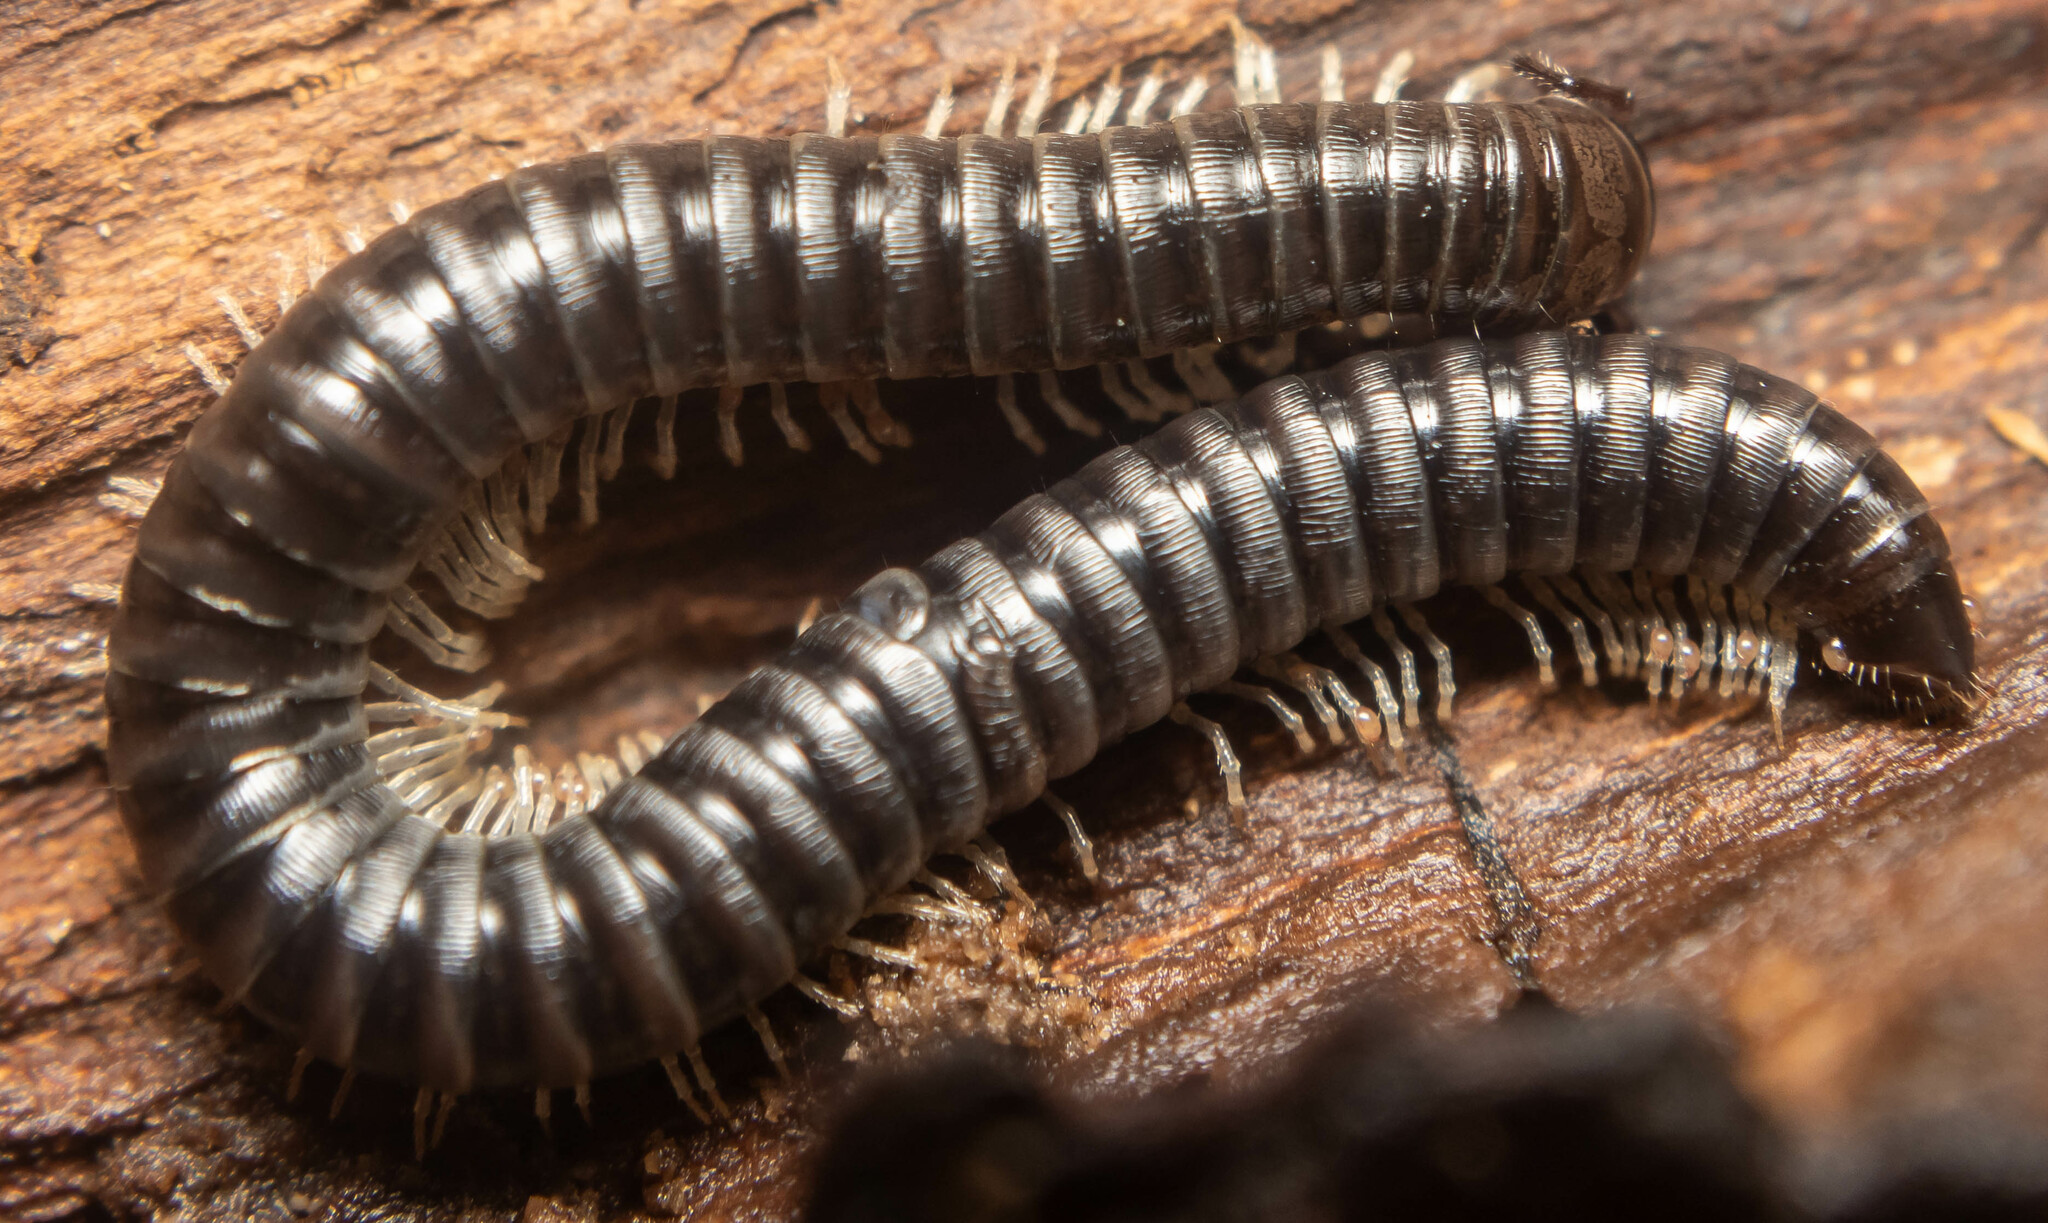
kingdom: Animalia
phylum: Arthropoda
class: Diplopoda
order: Julida
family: Julidae
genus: Tachypodoiulus
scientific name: Tachypodoiulus niger
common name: White-legged snake millipede
